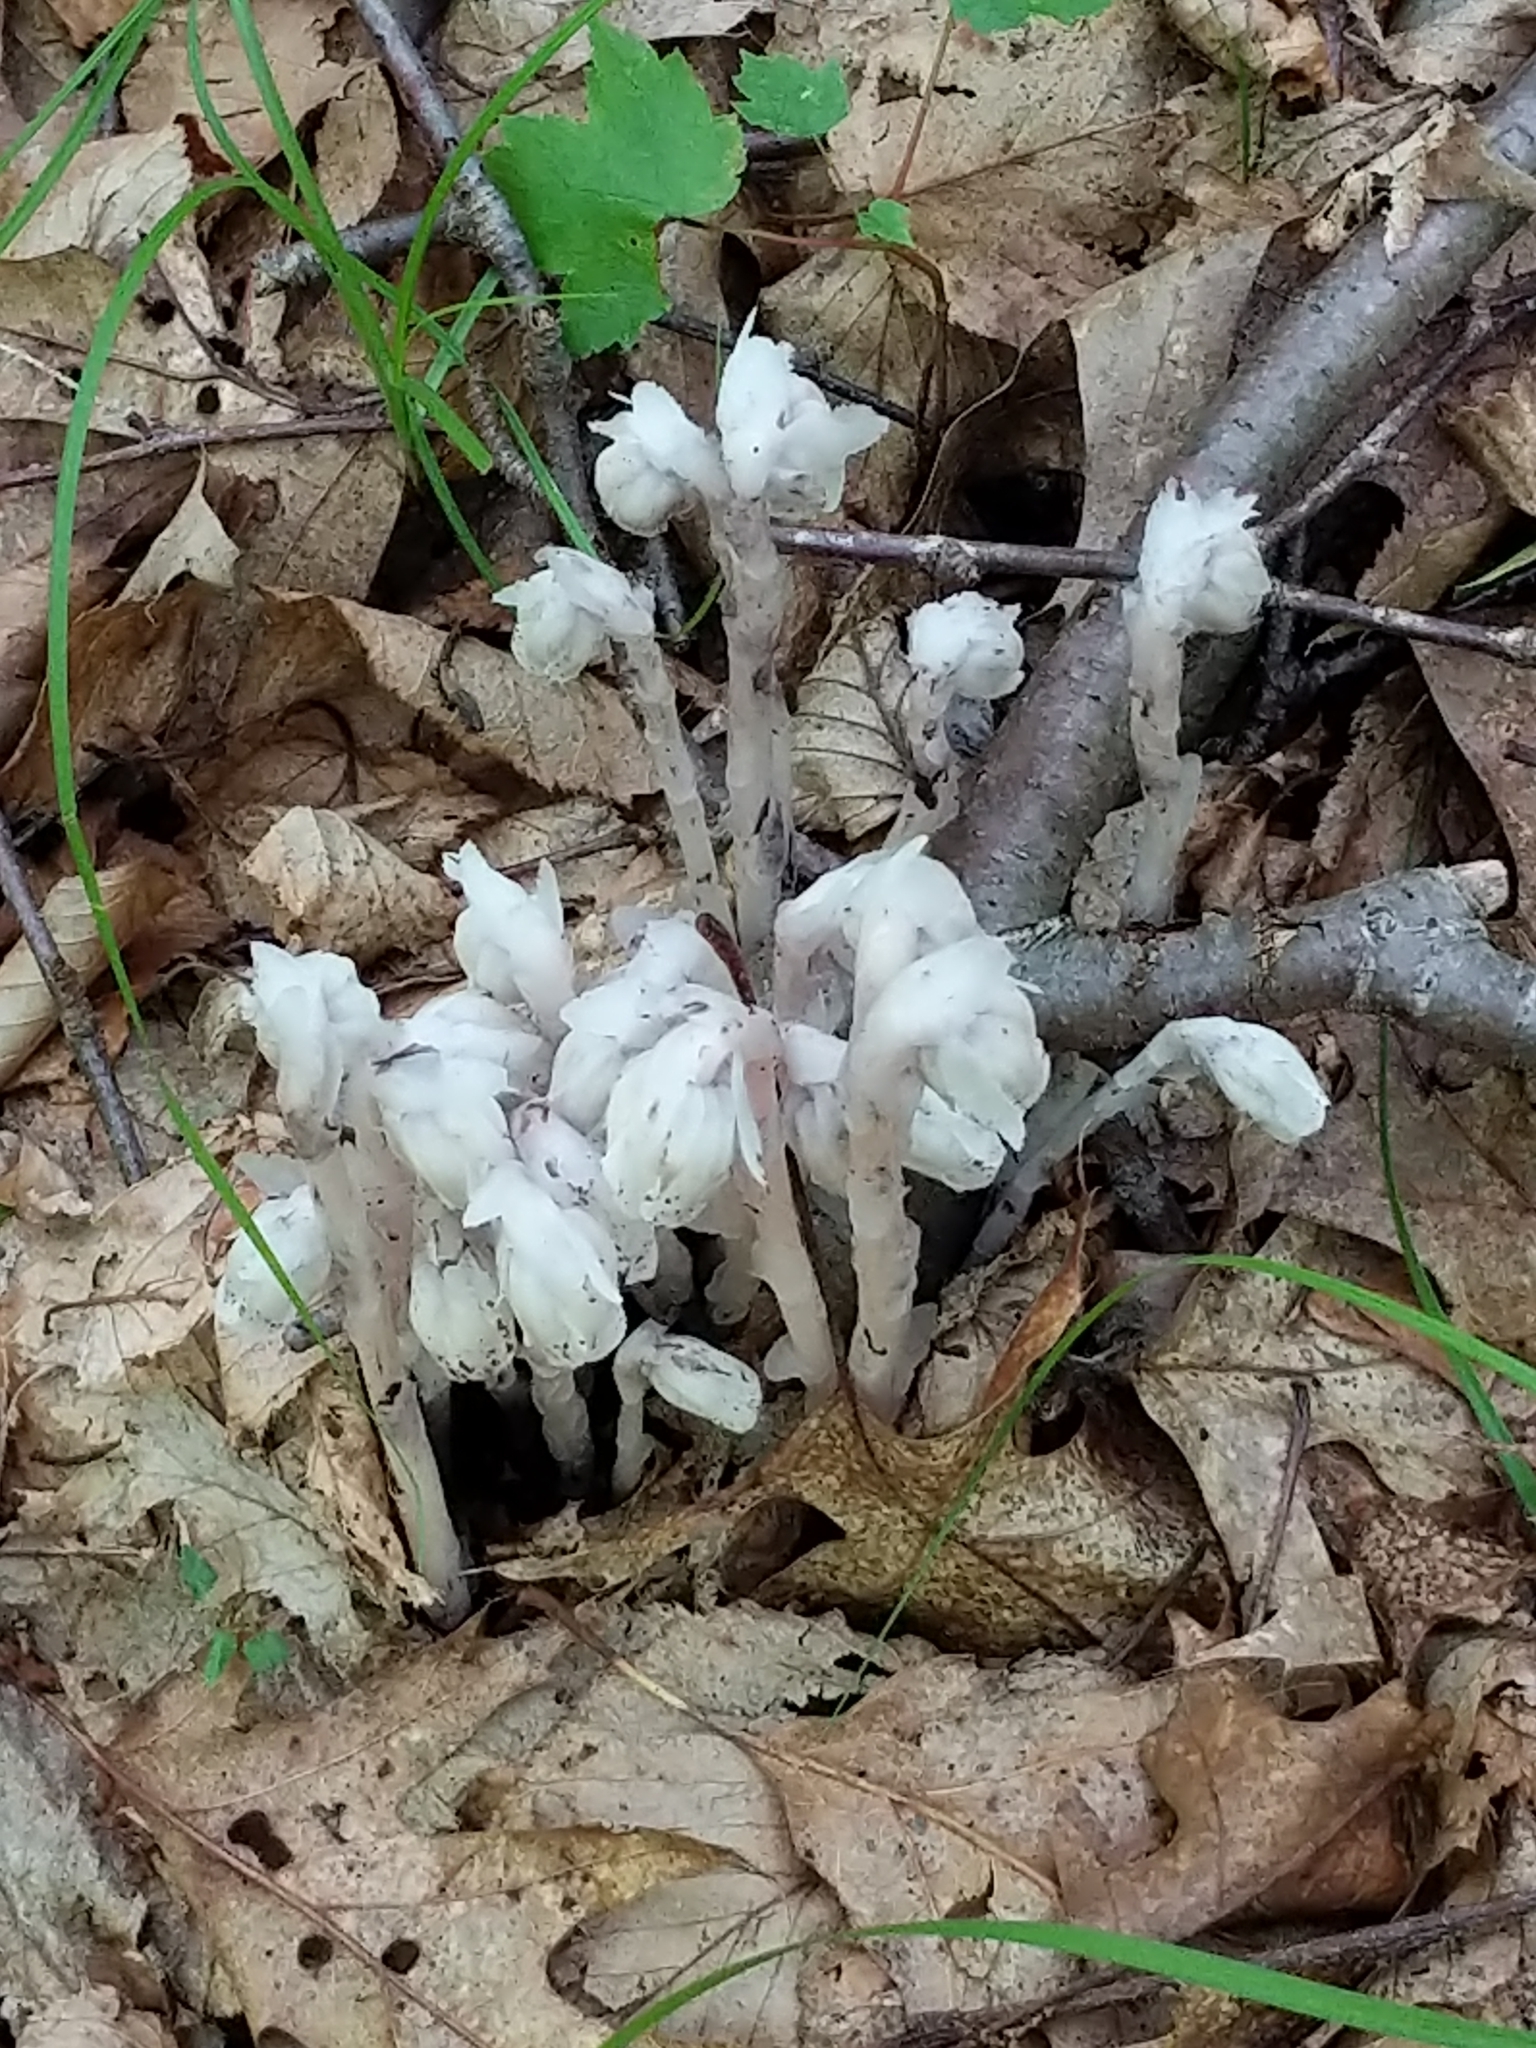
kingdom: Plantae
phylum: Tracheophyta
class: Magnoliopsida
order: Ericales
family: Ericaceae
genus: Monotropa
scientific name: Monotropa uniflora
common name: Convulsion root
